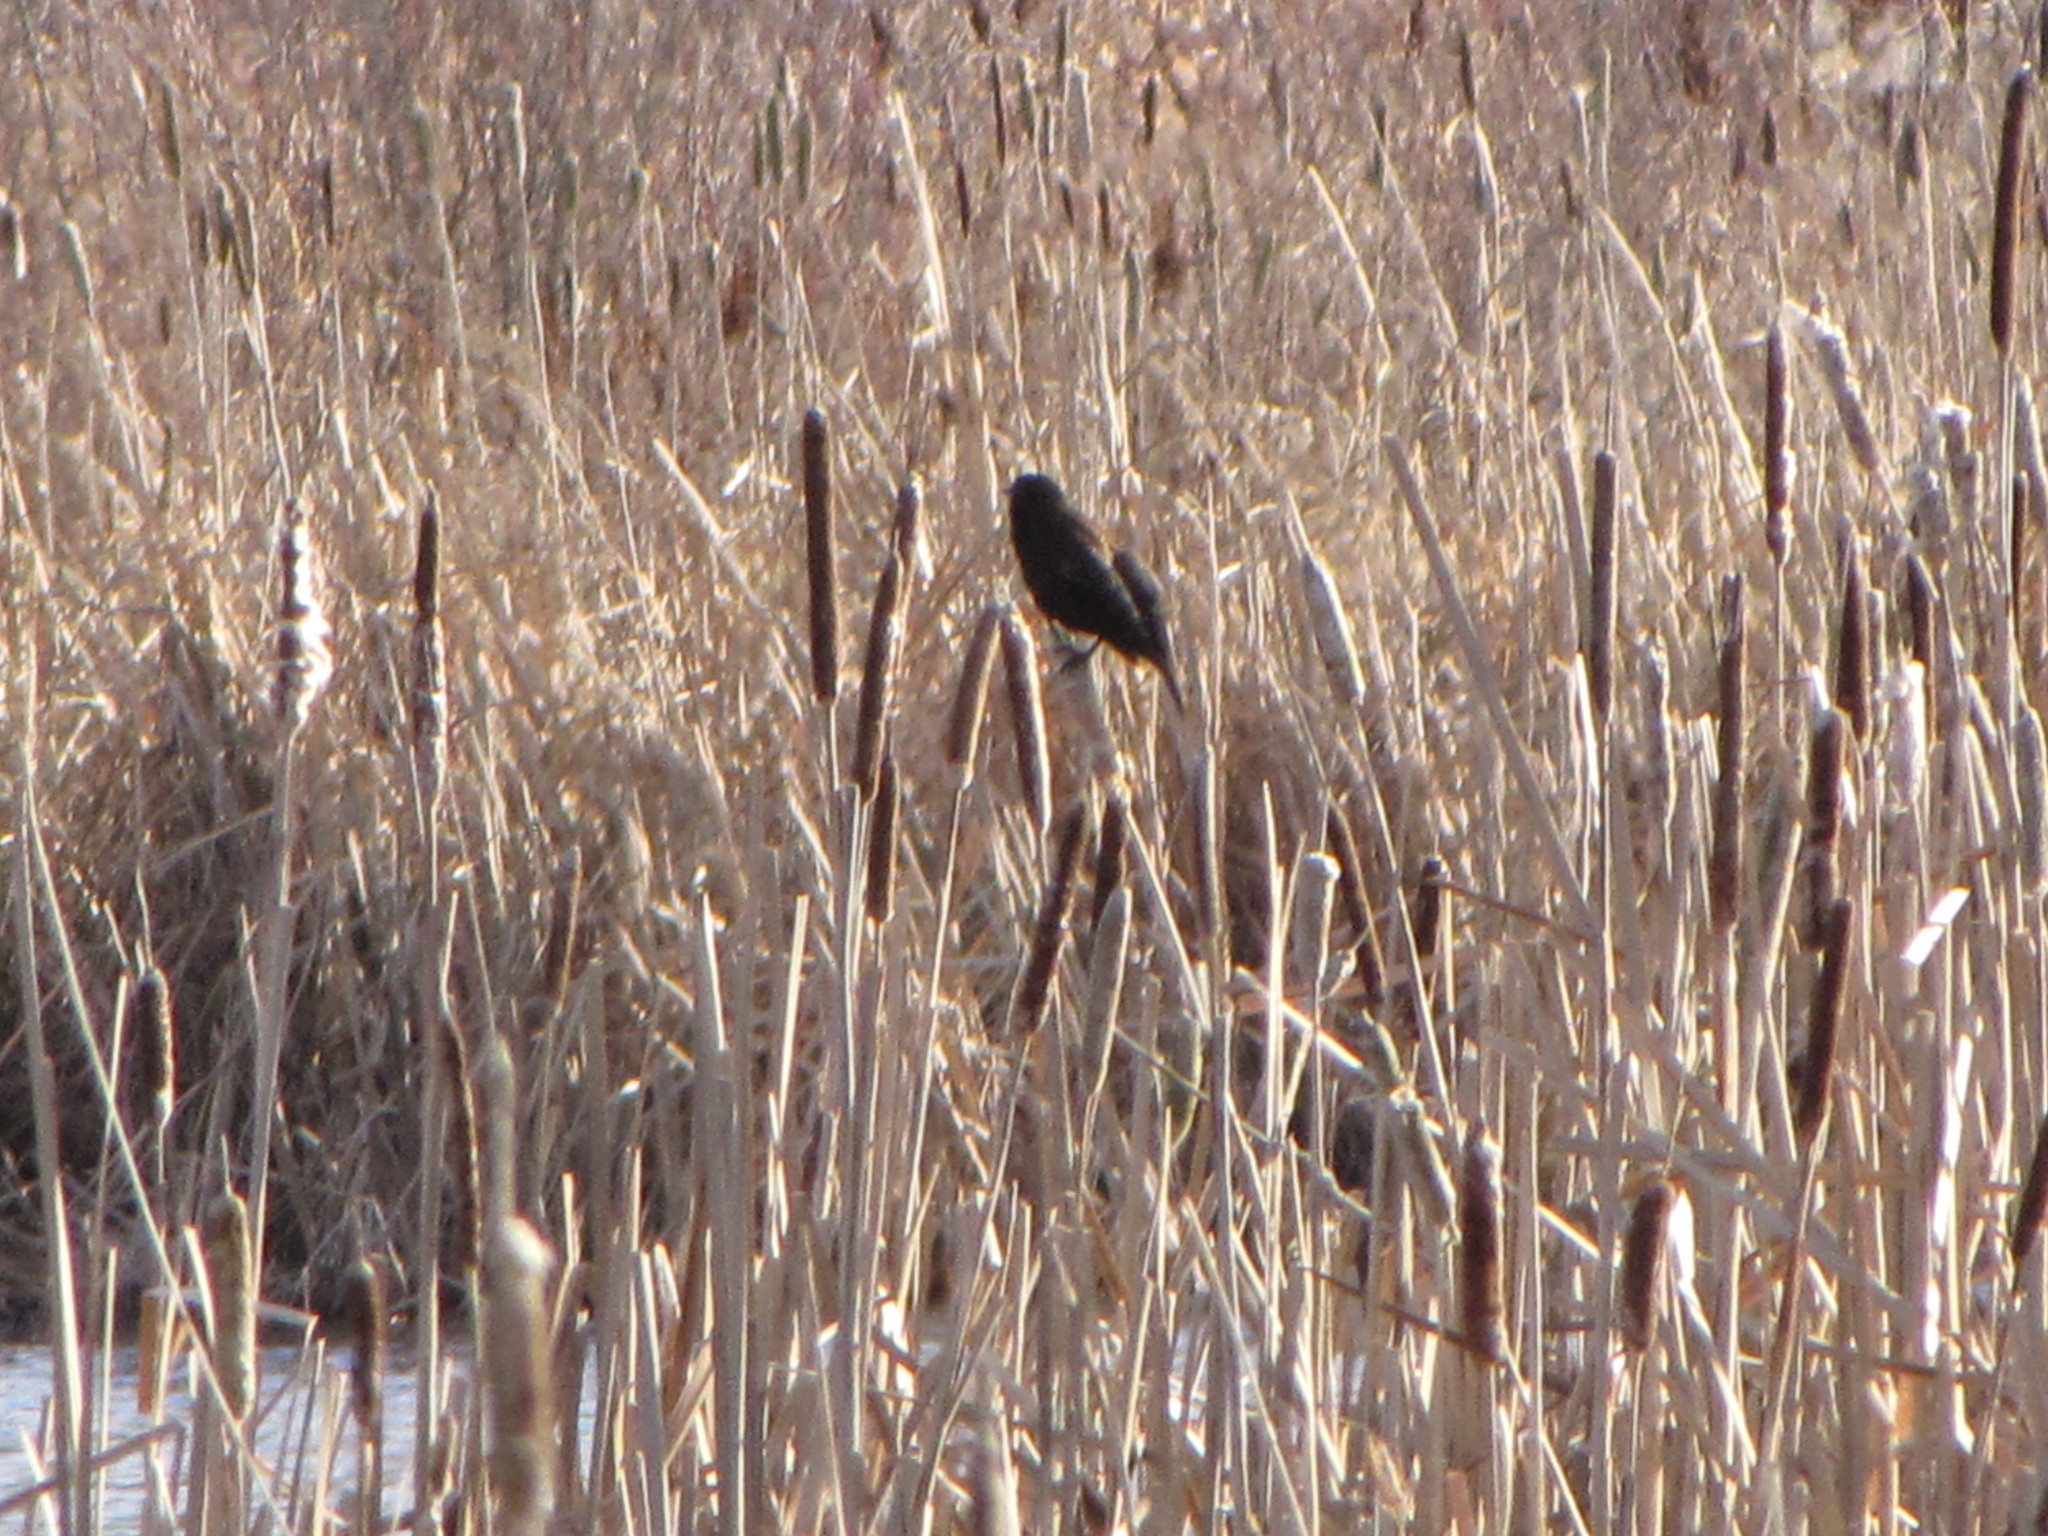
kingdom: Animalia
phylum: Chordata
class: Aves
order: Passeriformes
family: Icteridae
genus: Agelaius
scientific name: Agelaius phoeniceus
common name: Red-winged blackbird
